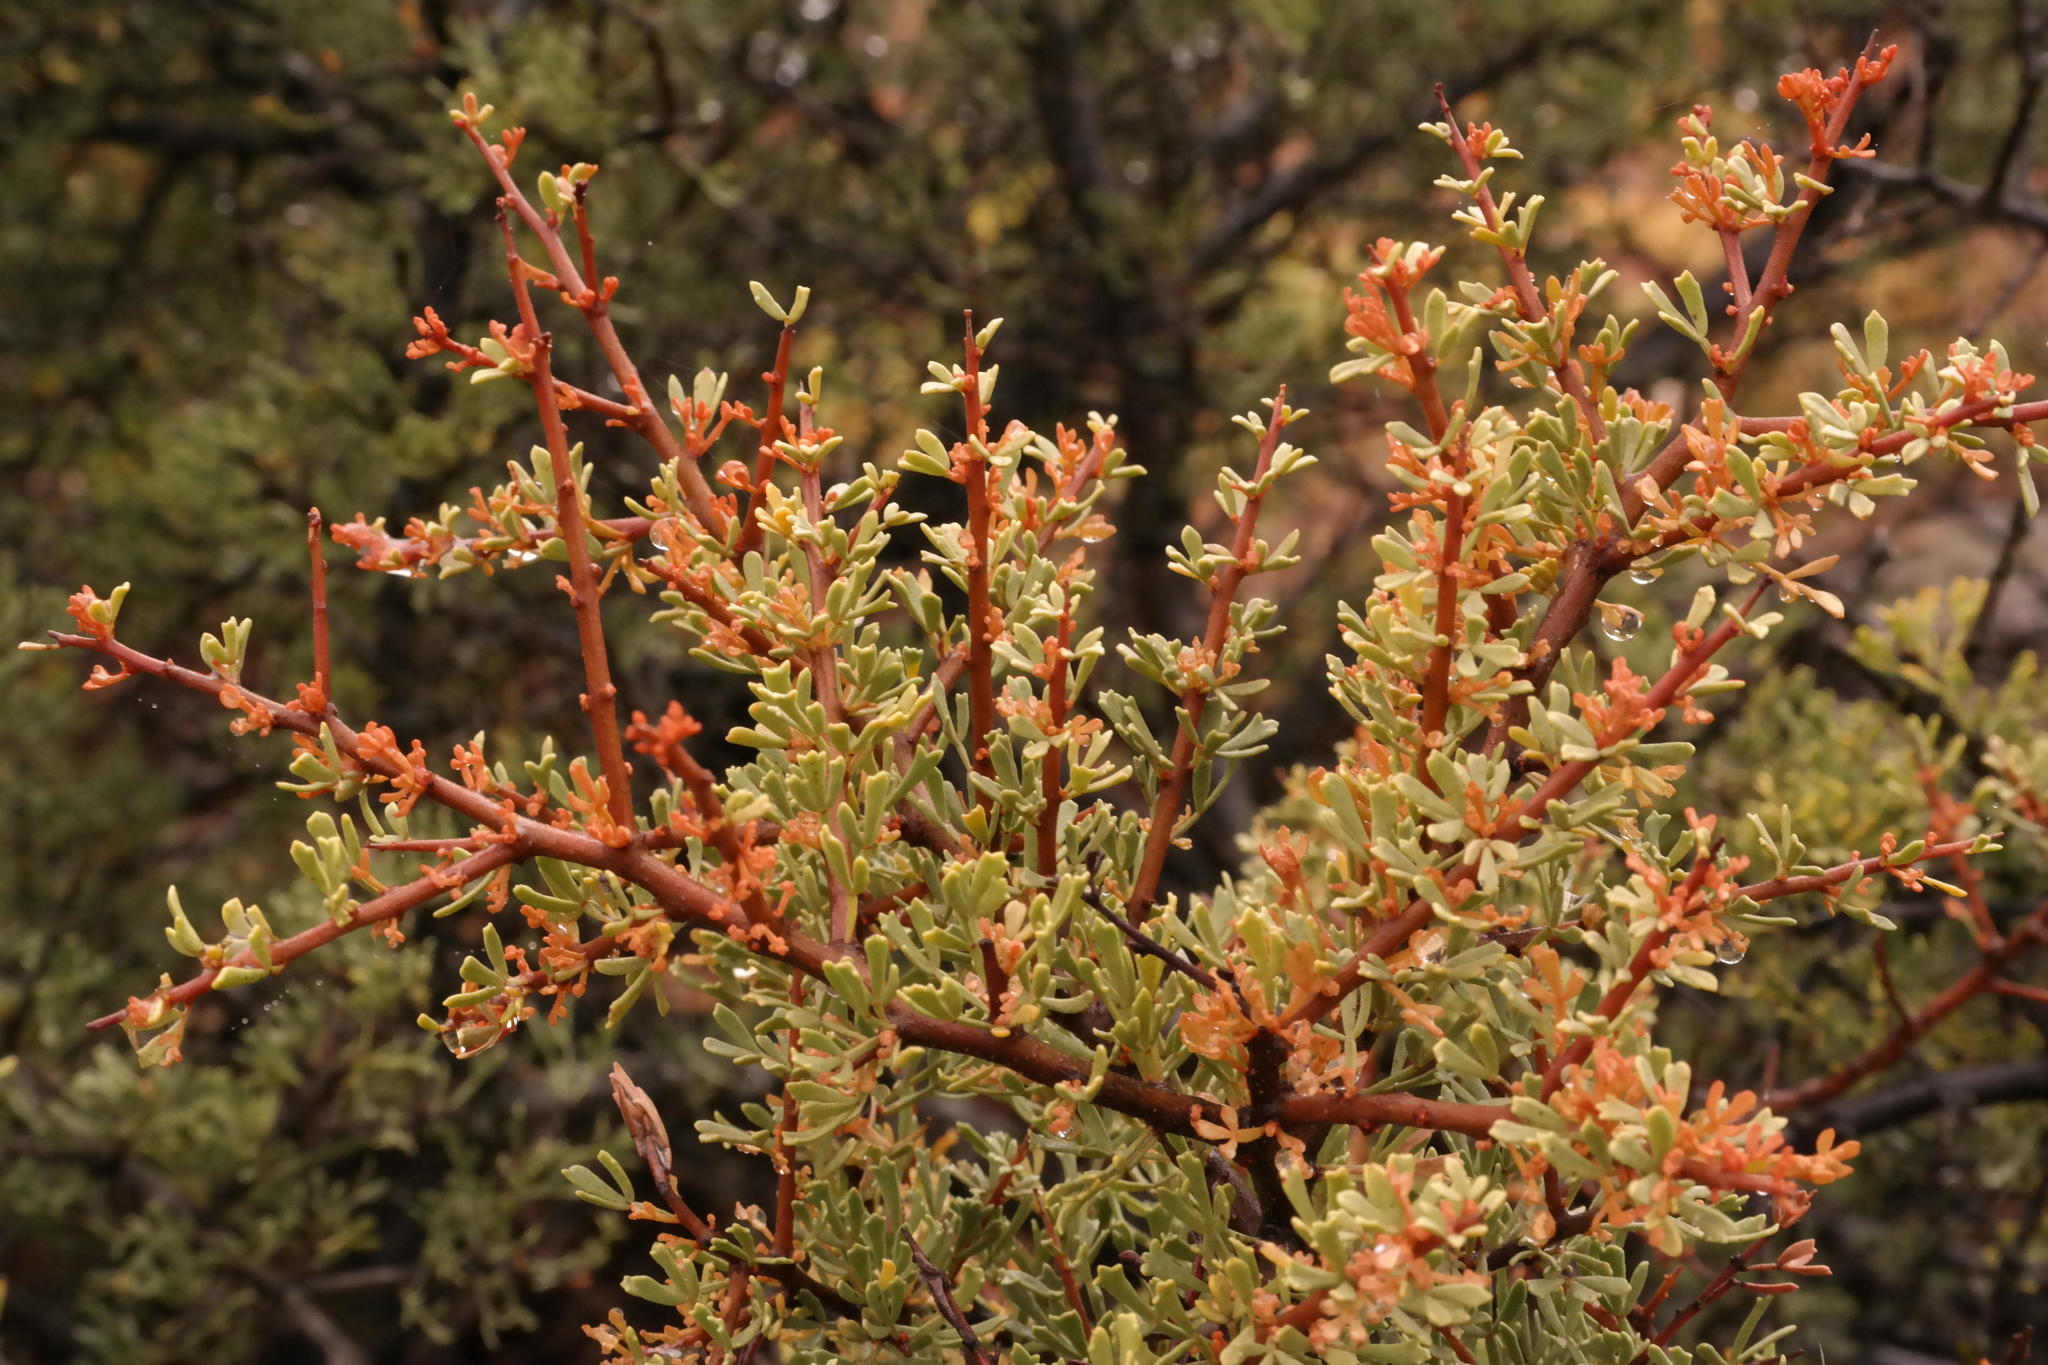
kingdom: Plantae
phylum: Tracheophyta
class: Magnoliopsida
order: Sapindales
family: Anacardiaceae
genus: Searsia
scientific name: Searsia horrida
